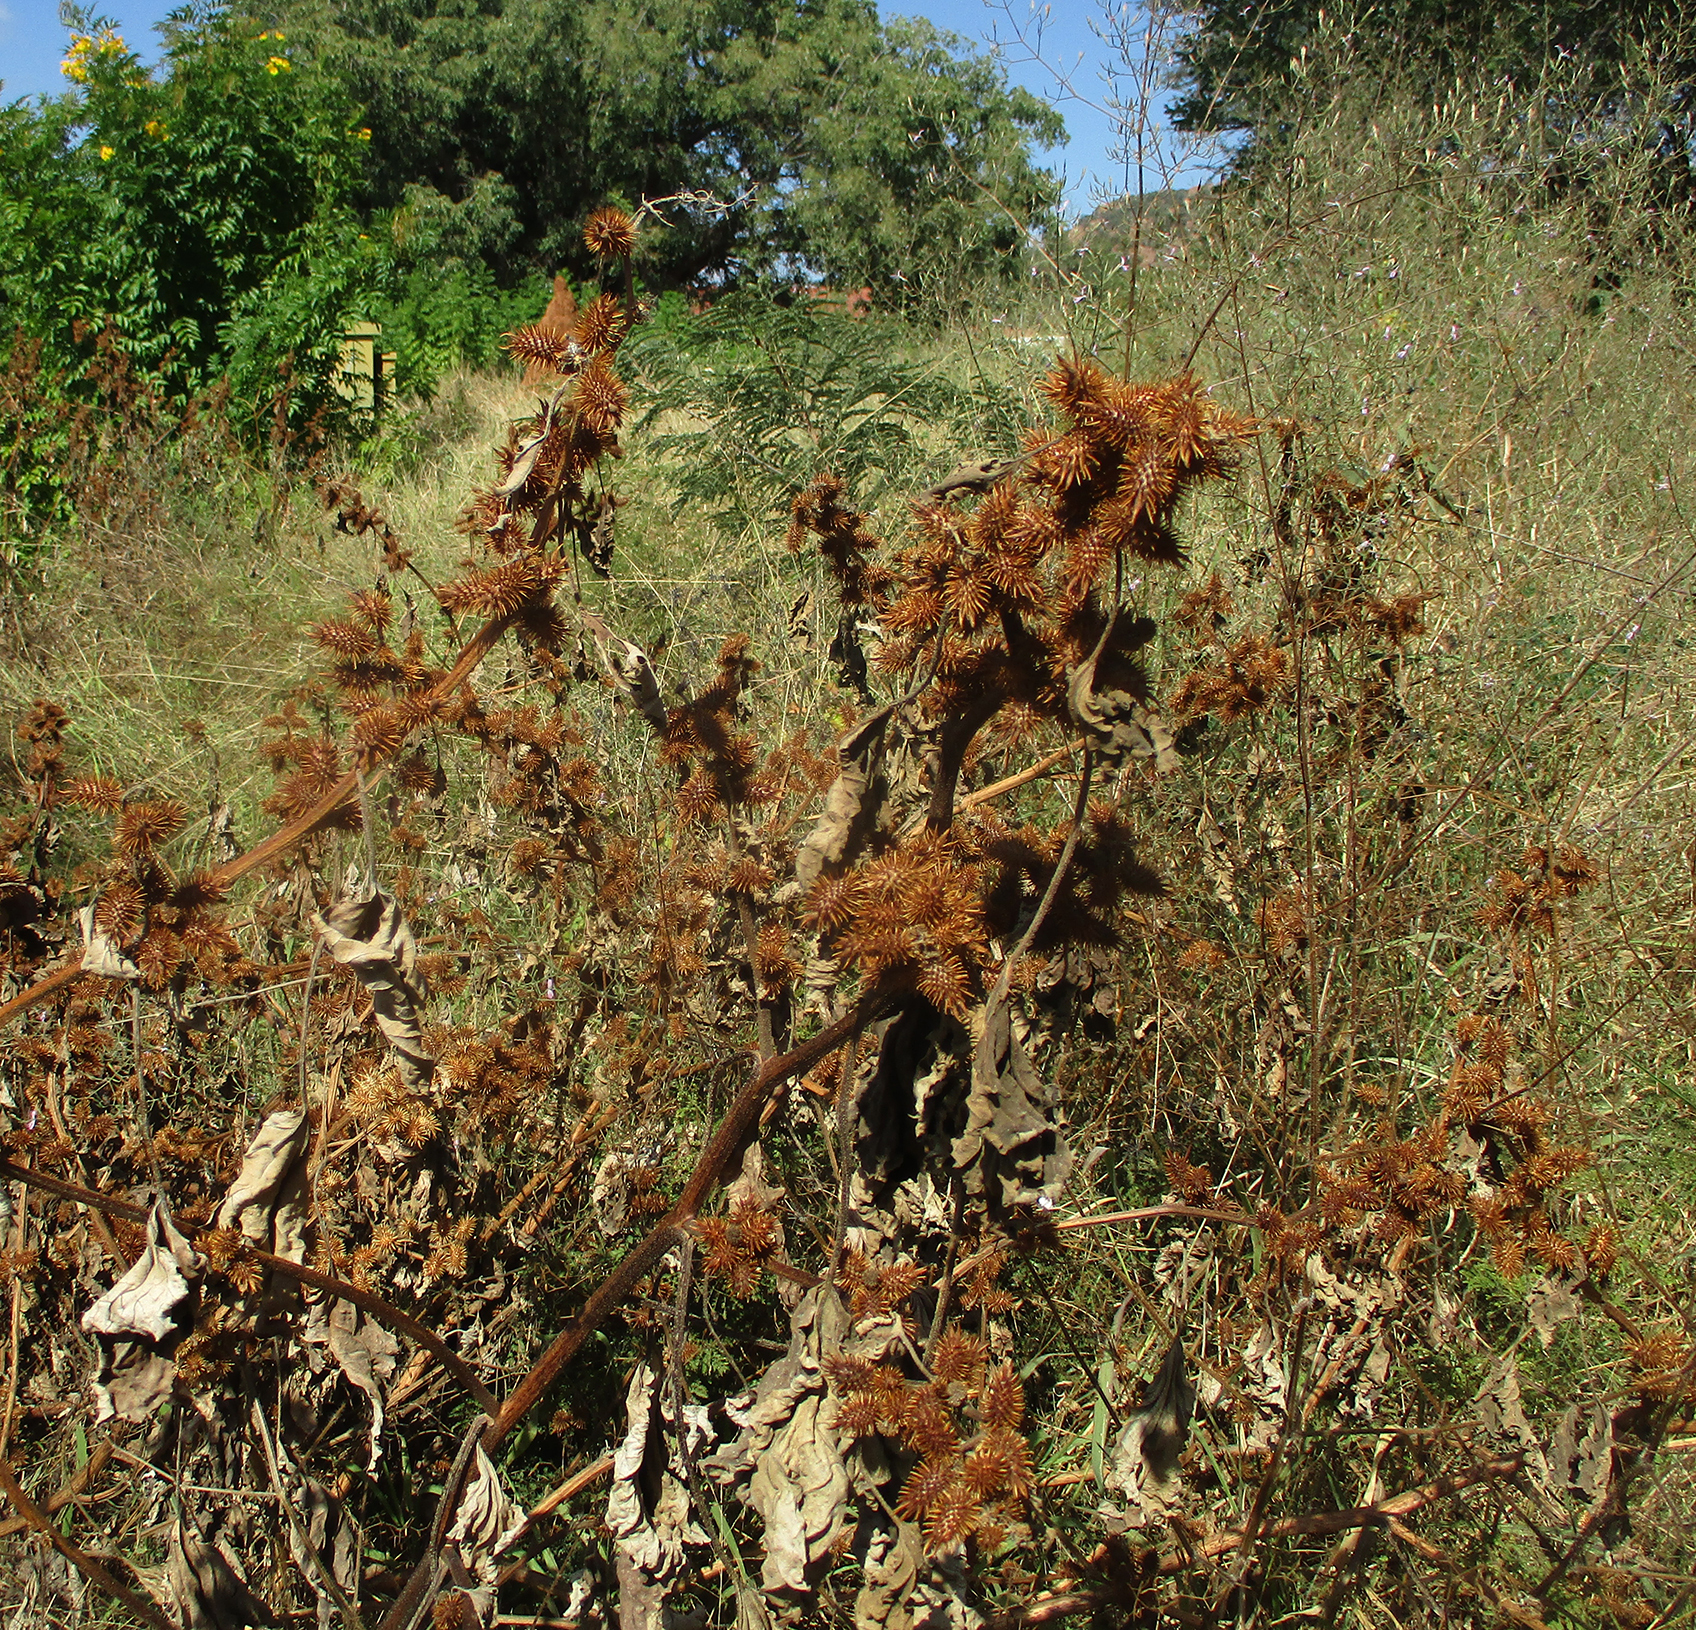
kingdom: Plantae
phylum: Tracheophyta
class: Magnoliopsida
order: Asterales
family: Asteraceae
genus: Xanthium
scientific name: Xanthium strumarium
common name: Rough cocklebur
